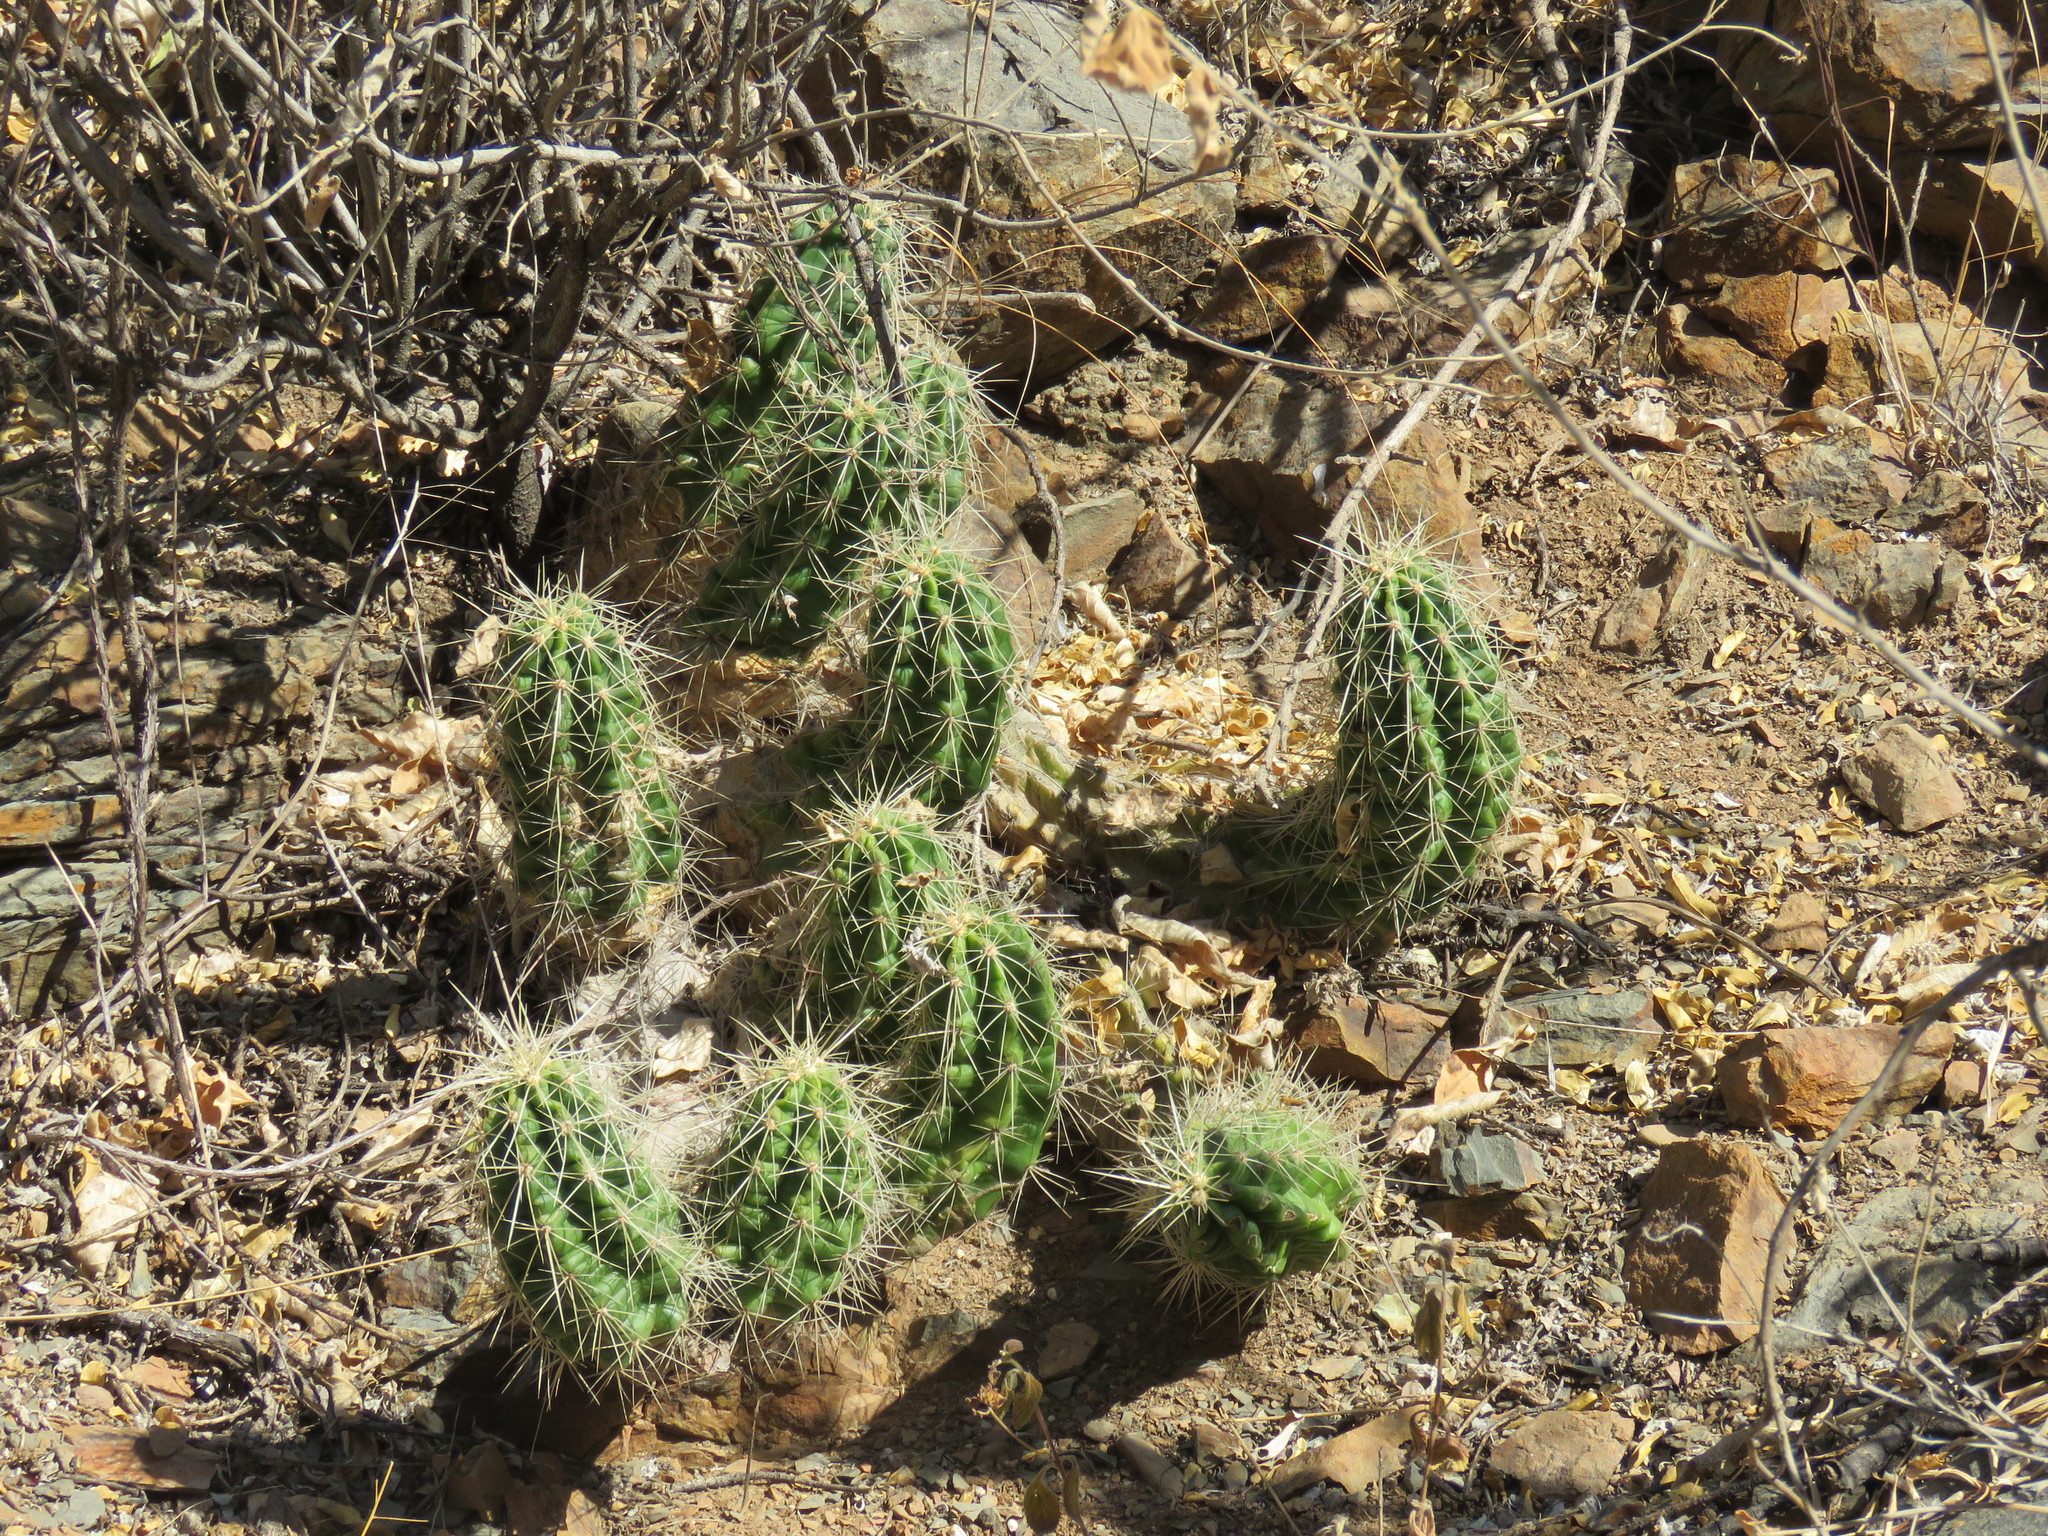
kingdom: Plantae
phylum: Tracheophyta
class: Magnoliopsida
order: Caryophyllales
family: Cactaceae
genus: Echinocereus
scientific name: Echinocereus cinerascens
